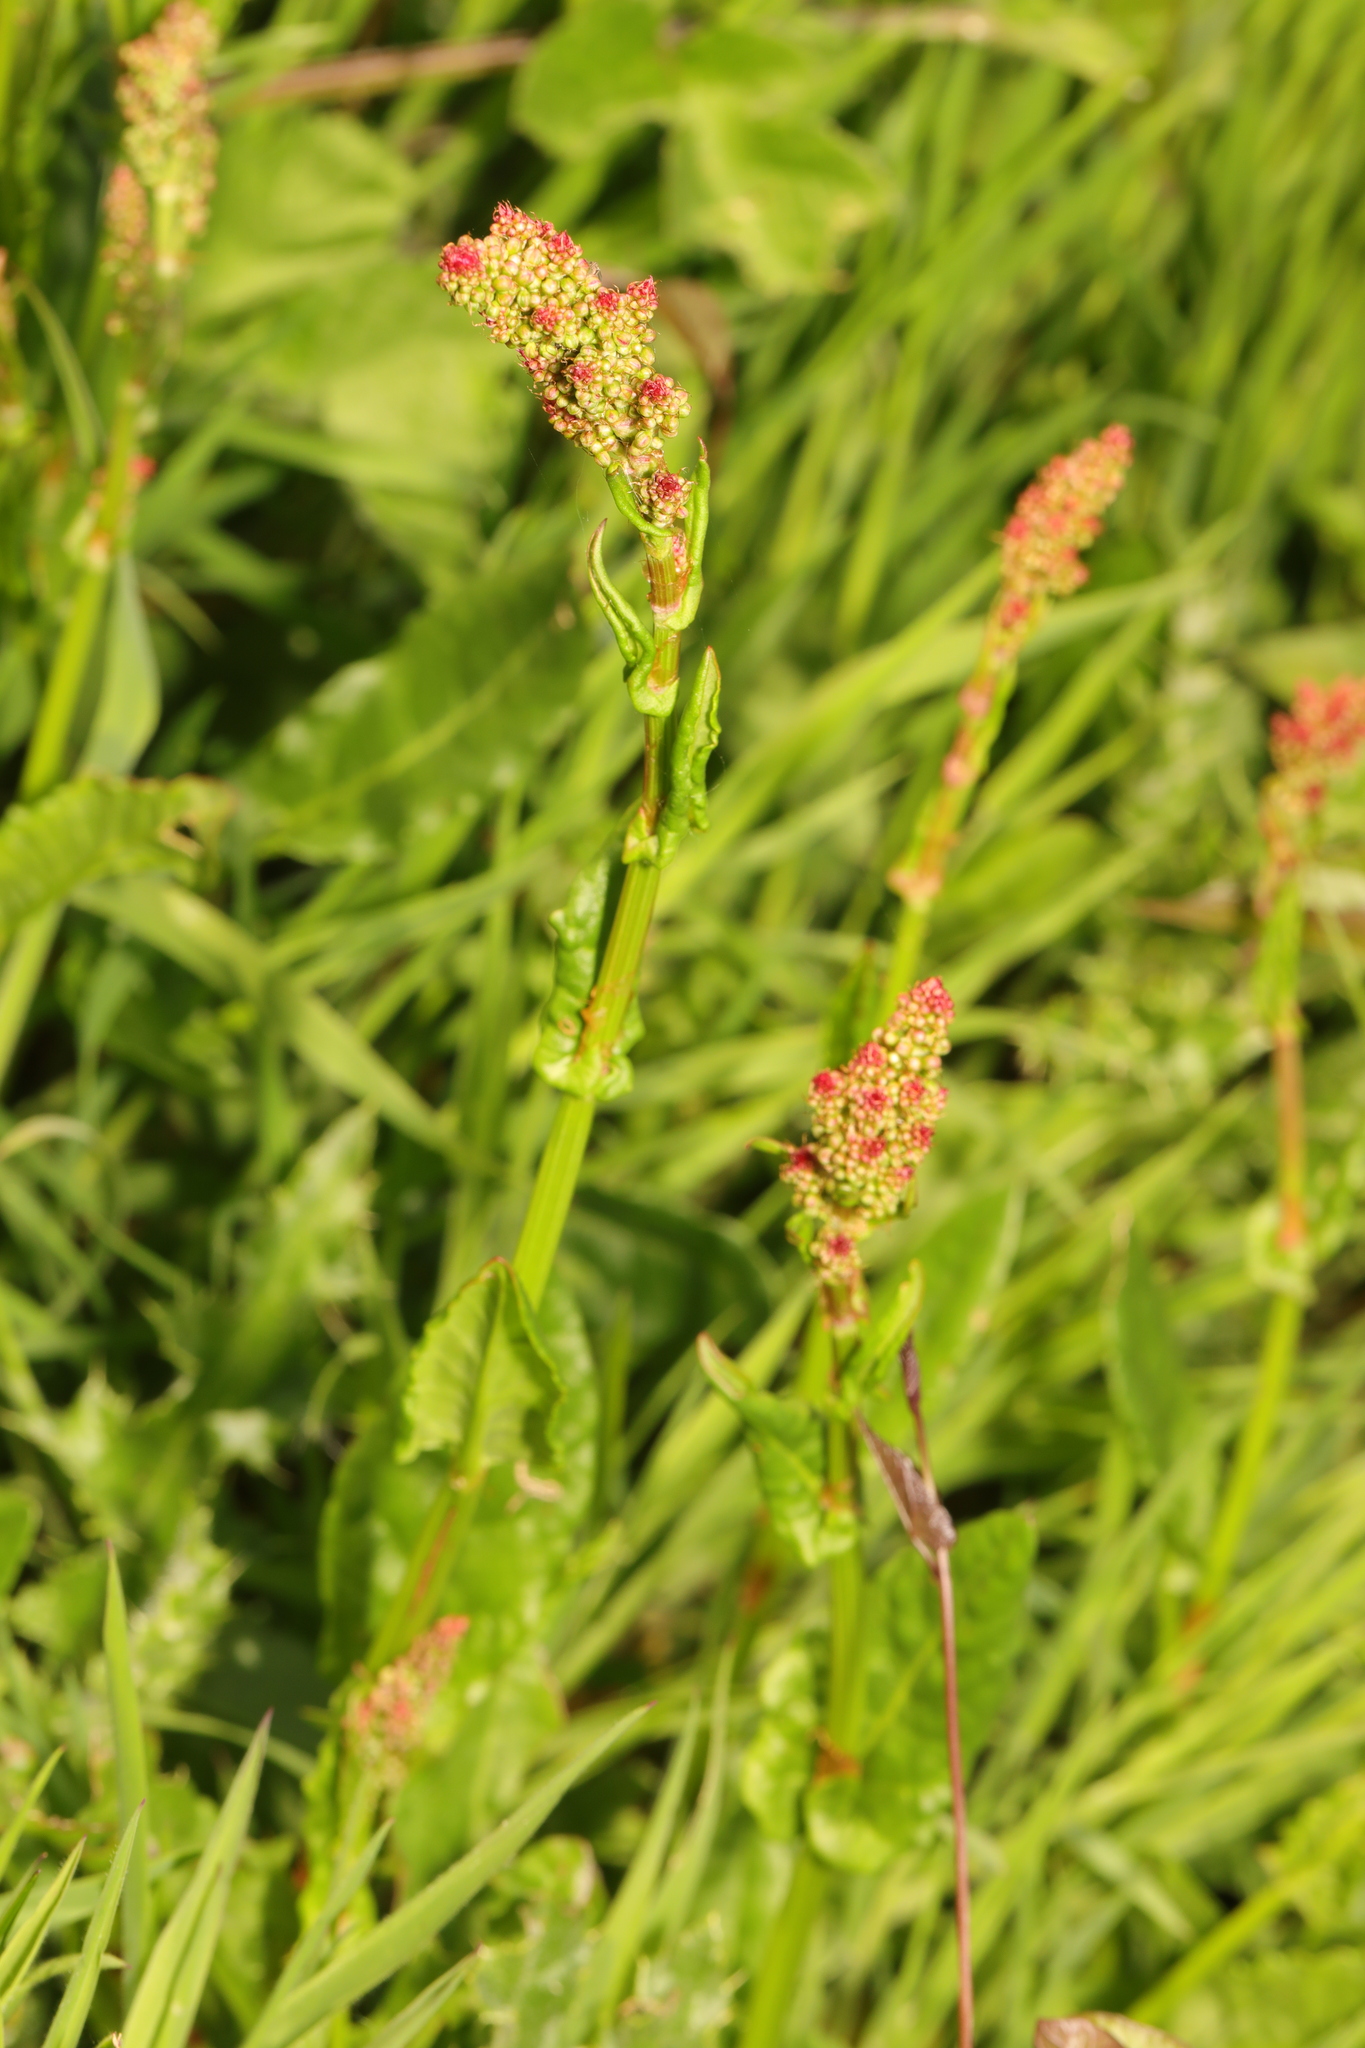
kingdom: Plantae
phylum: Tracheophyta
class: Magnoliopsida
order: Caryophyllales
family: Polygonaceae
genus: Rumex
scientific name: Rumex acetosa
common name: Garden sorrel
